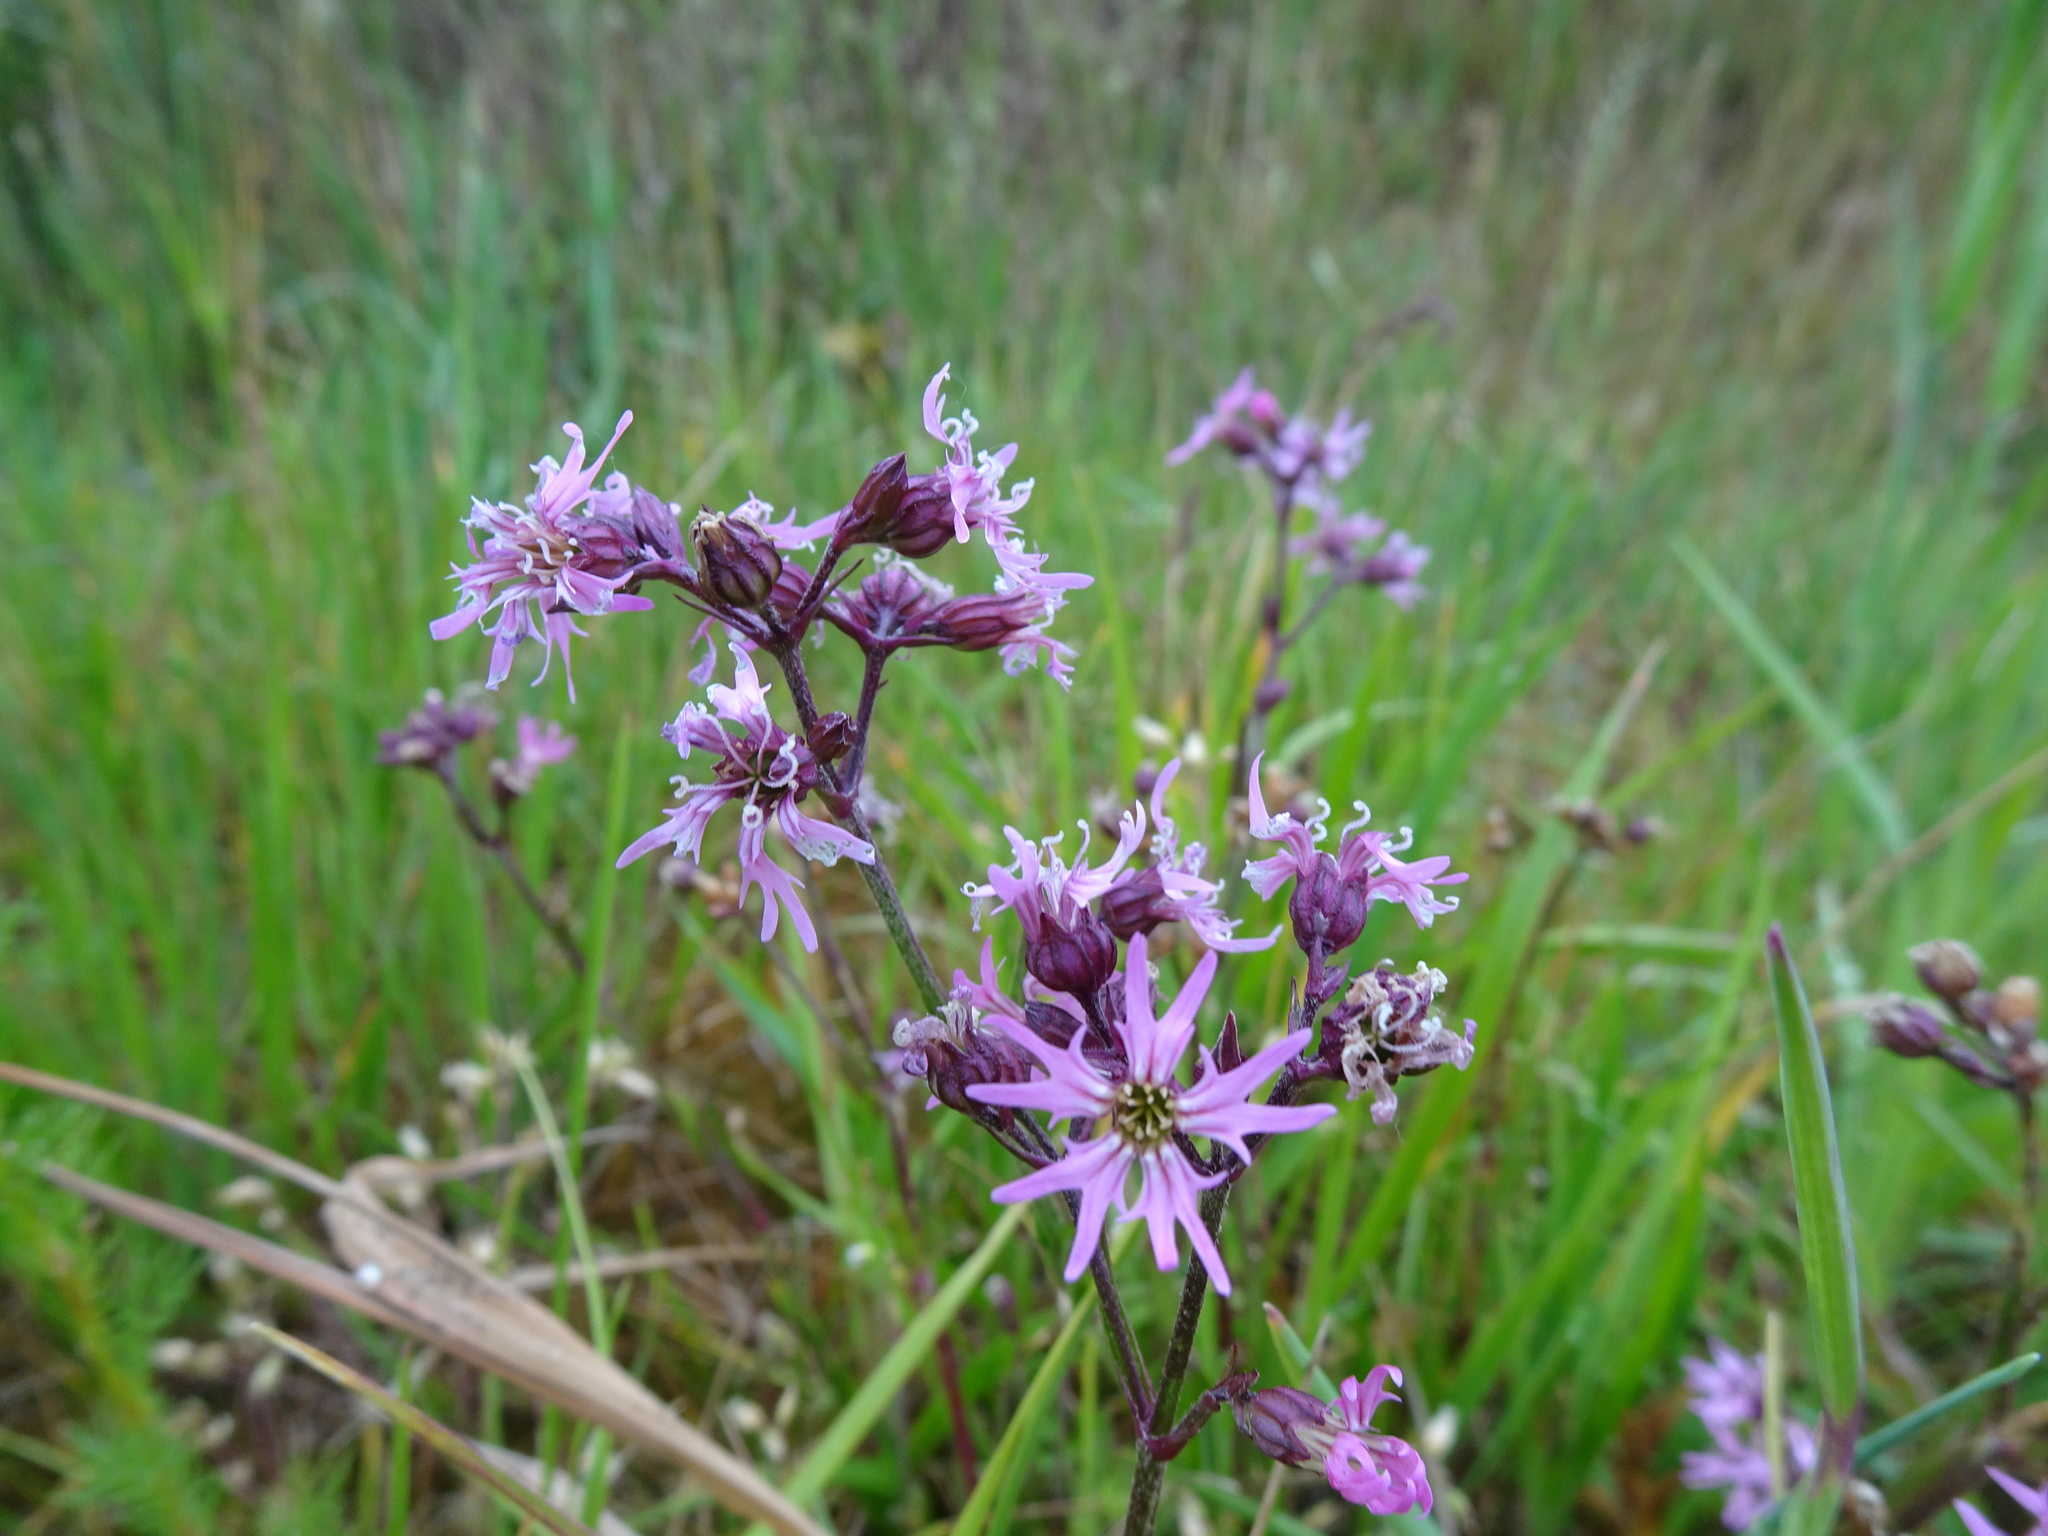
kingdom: Plantae
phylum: Tracheophyta
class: Magnoliopsida
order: Caryophyllales
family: Caryophyllaceae
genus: Silene
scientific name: Silene flos-cuculi
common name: Ragged-robin
